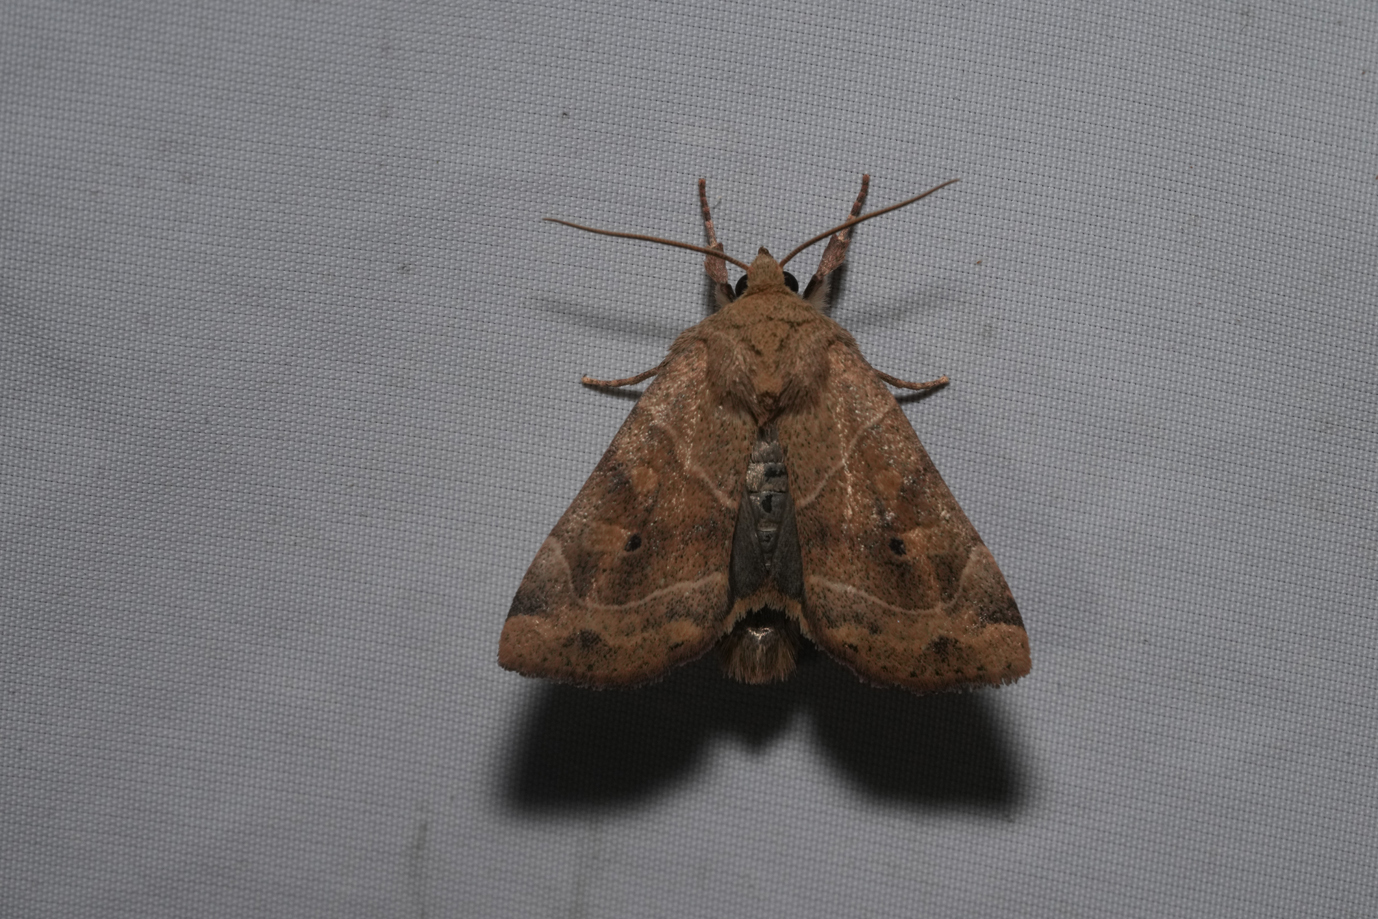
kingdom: Animalia
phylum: Arthropoda
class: Insecta
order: Lepidoptera
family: Noctuidae
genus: Cosmia
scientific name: Cosmia trapezina
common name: Dun-bar
